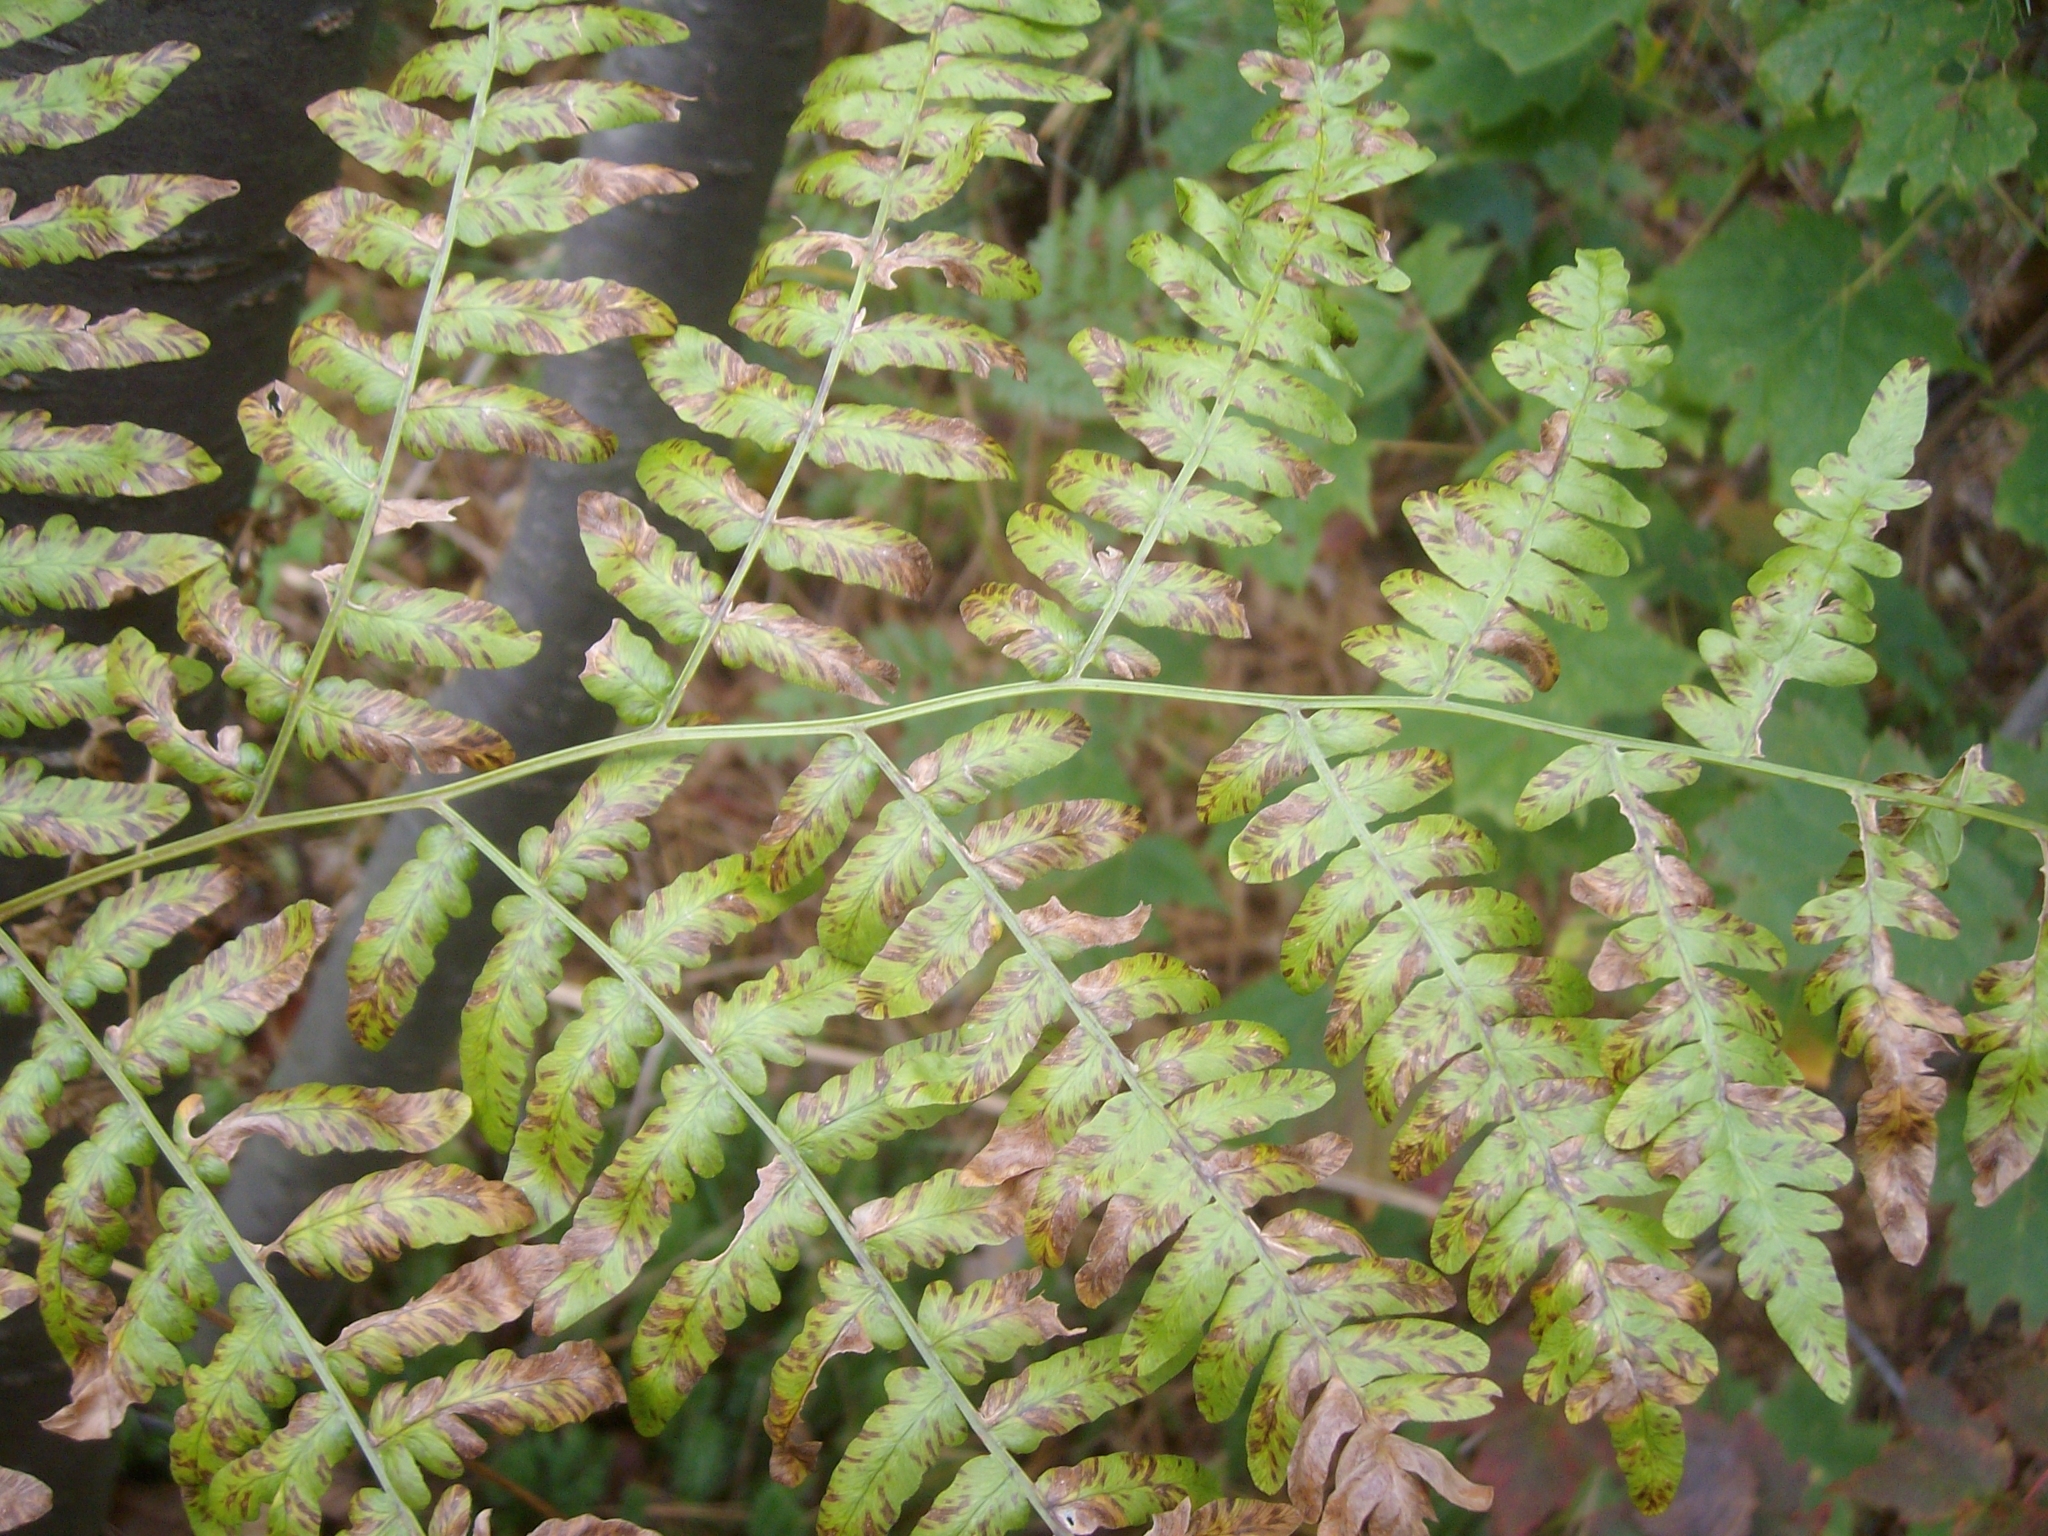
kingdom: Plantae
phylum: Tracheophyta
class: Polypodiopsida
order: Polypodiales
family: Dennstaedtiaceae
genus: Pteridium
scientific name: Pteridium aquilinum
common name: Bracken
